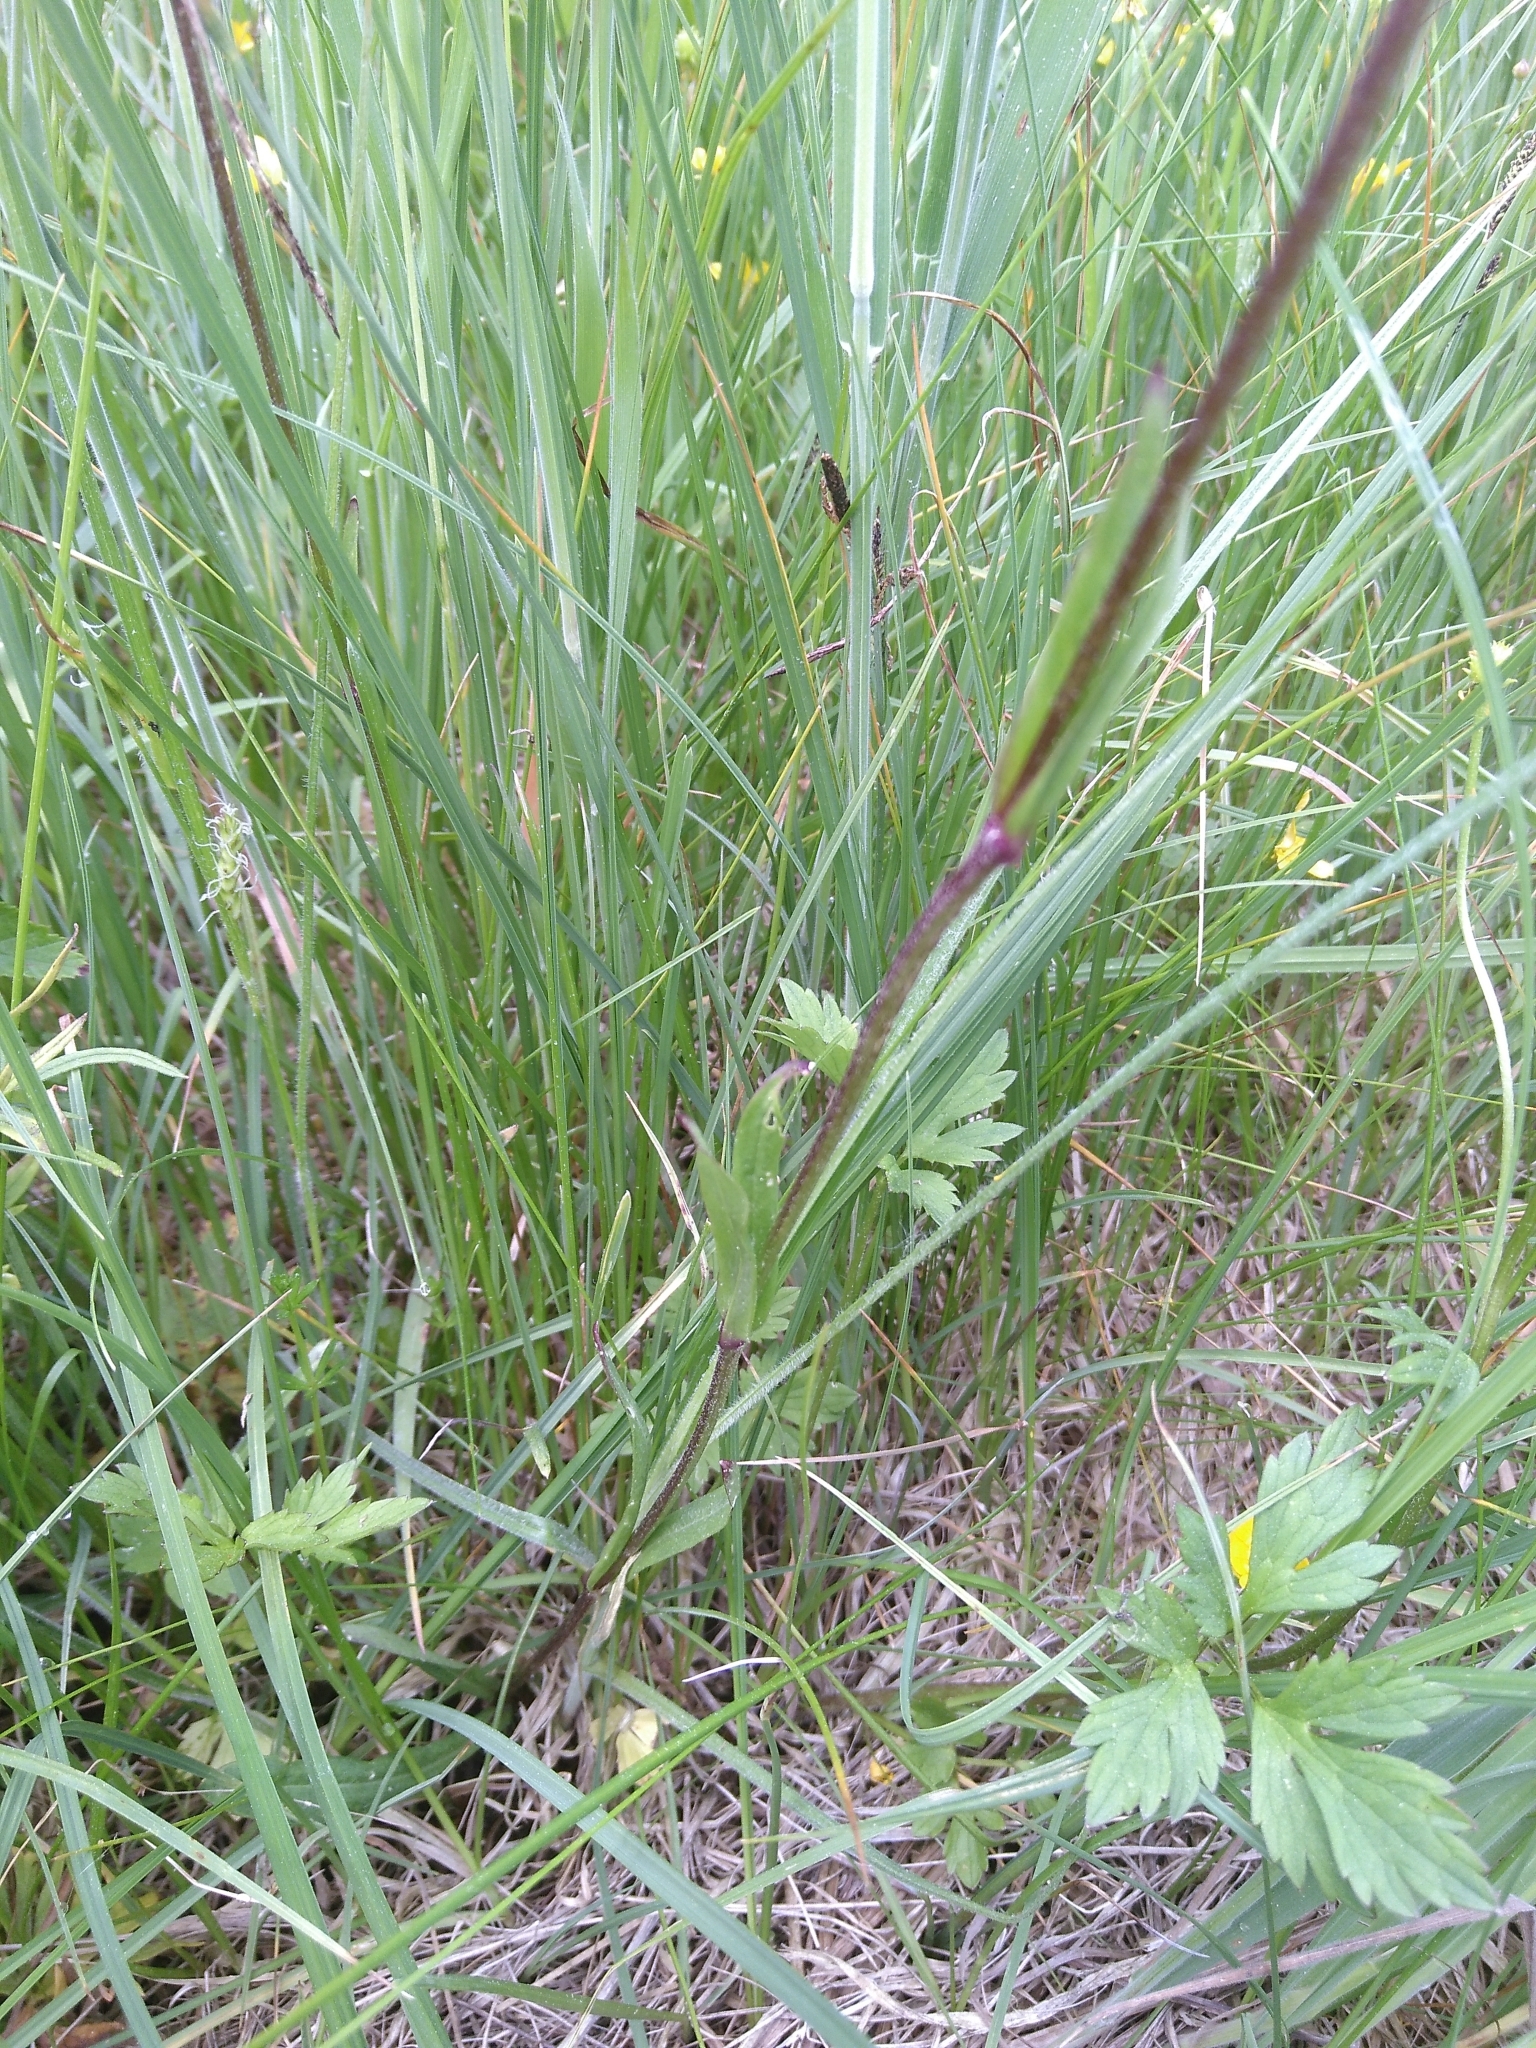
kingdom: Plantae
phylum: Tracheophyta
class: Magnoliopsida
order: Caryophyllales
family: Caryophyllaceae
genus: Silene
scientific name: Silene flos-cuculi
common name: Ragged-robin
